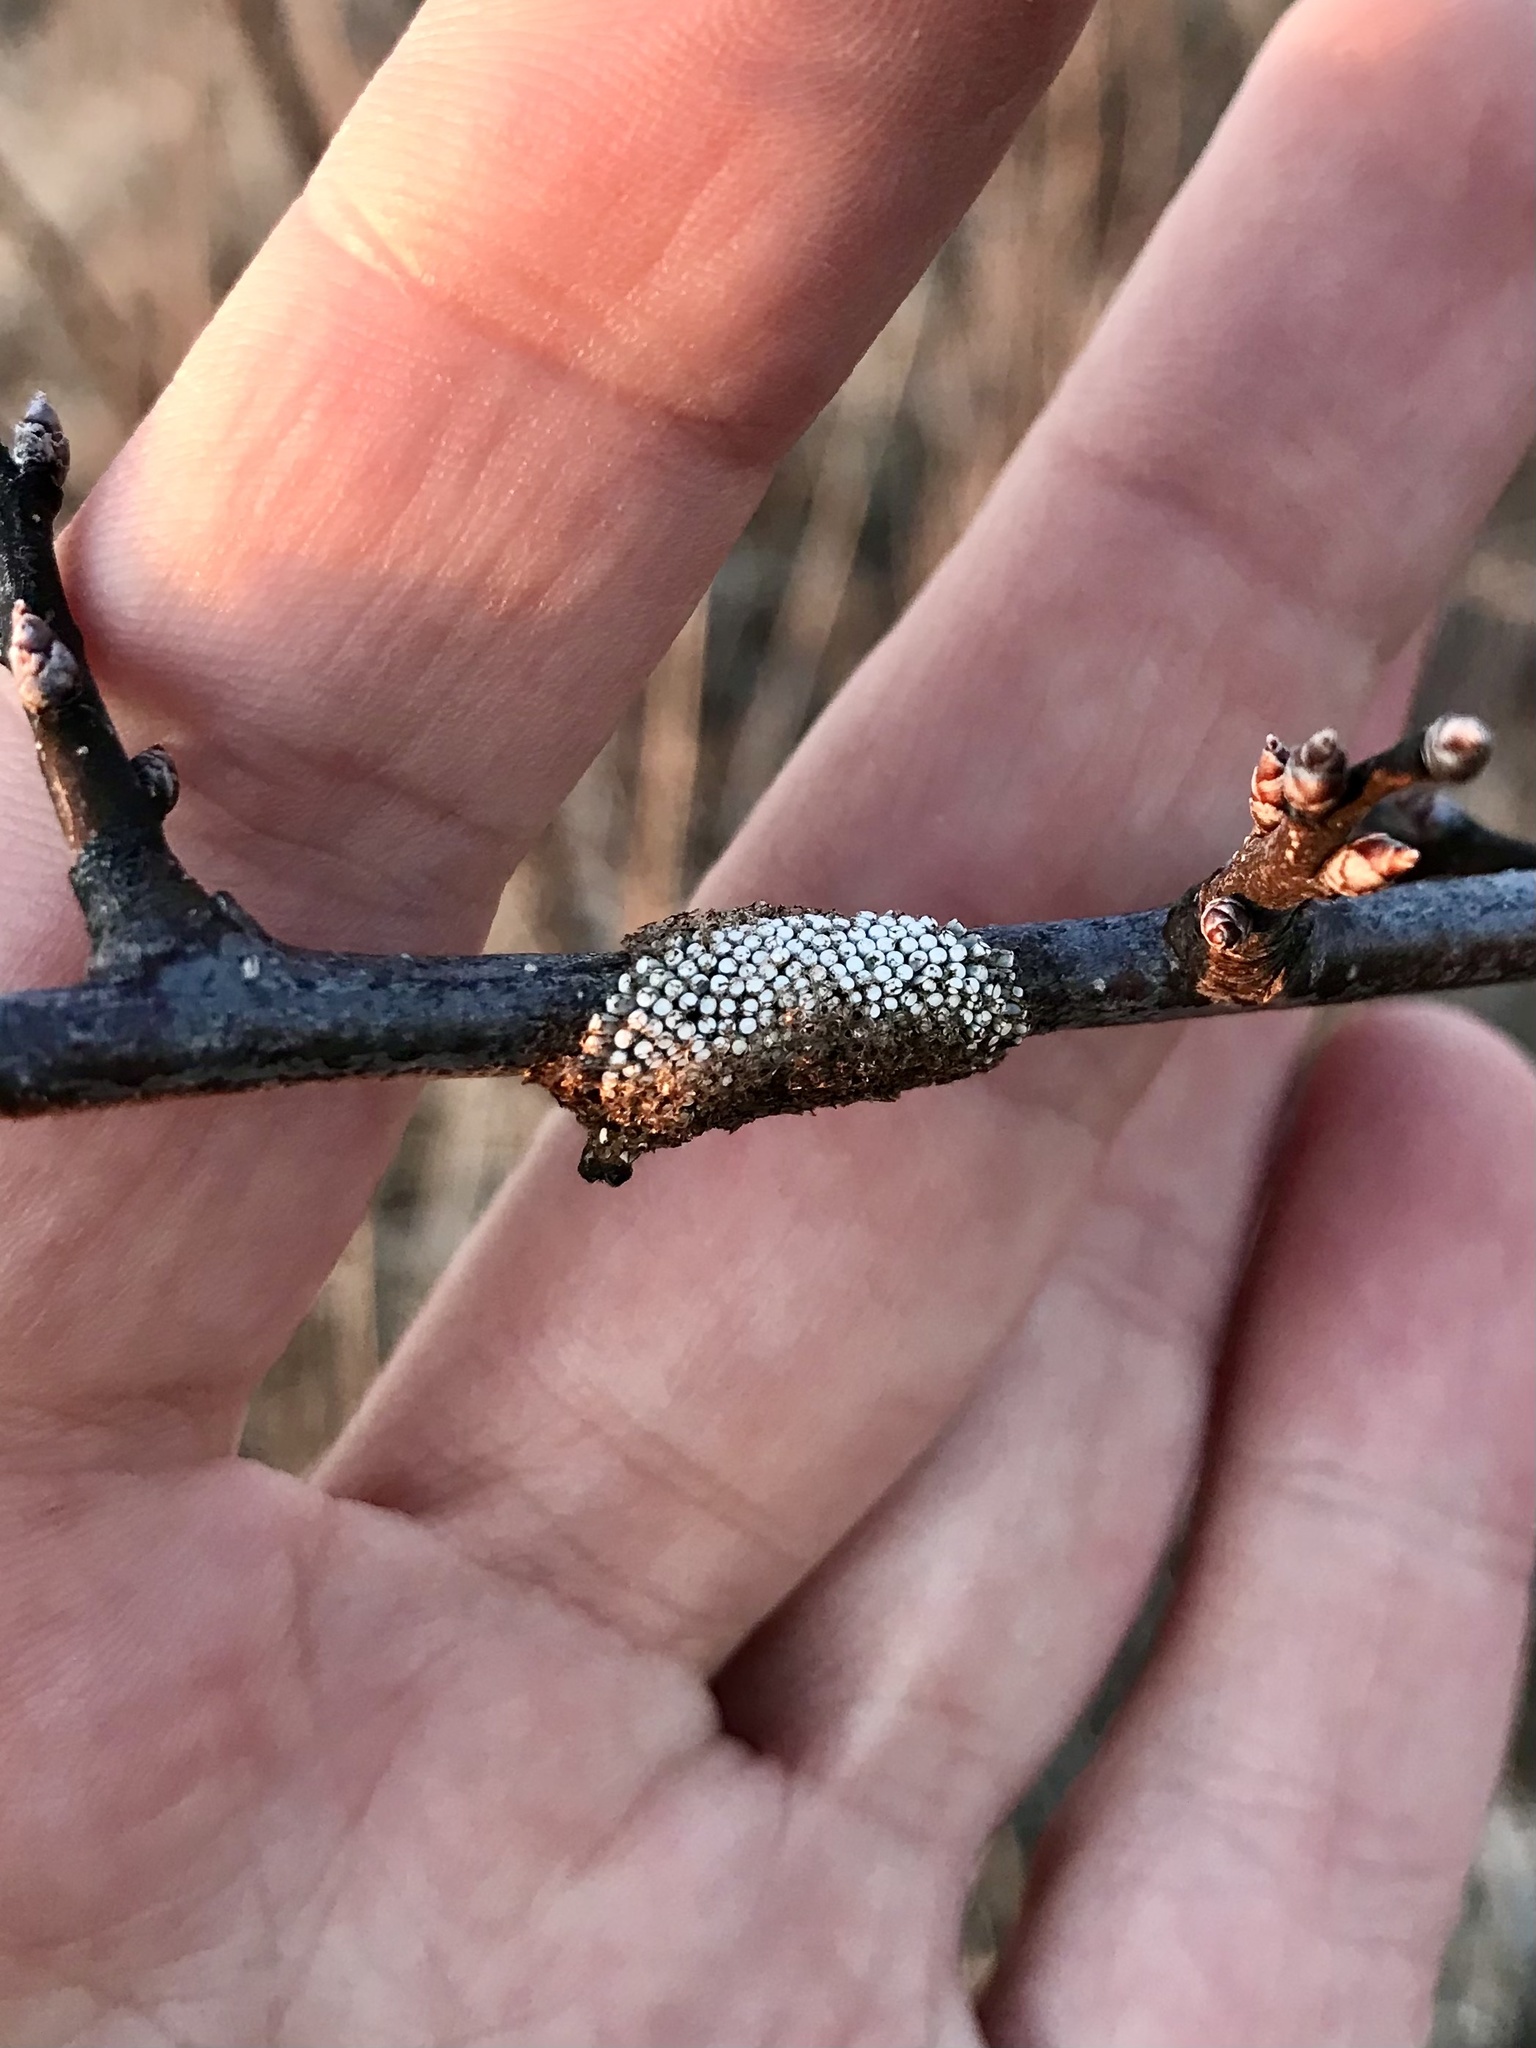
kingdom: Animalia
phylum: Arthropoda
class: Insecta
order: Lepidoptera
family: Lasiocampidae
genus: Malacosoma
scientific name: Malacosoma americana
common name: Eastern tent caterpillar moth
